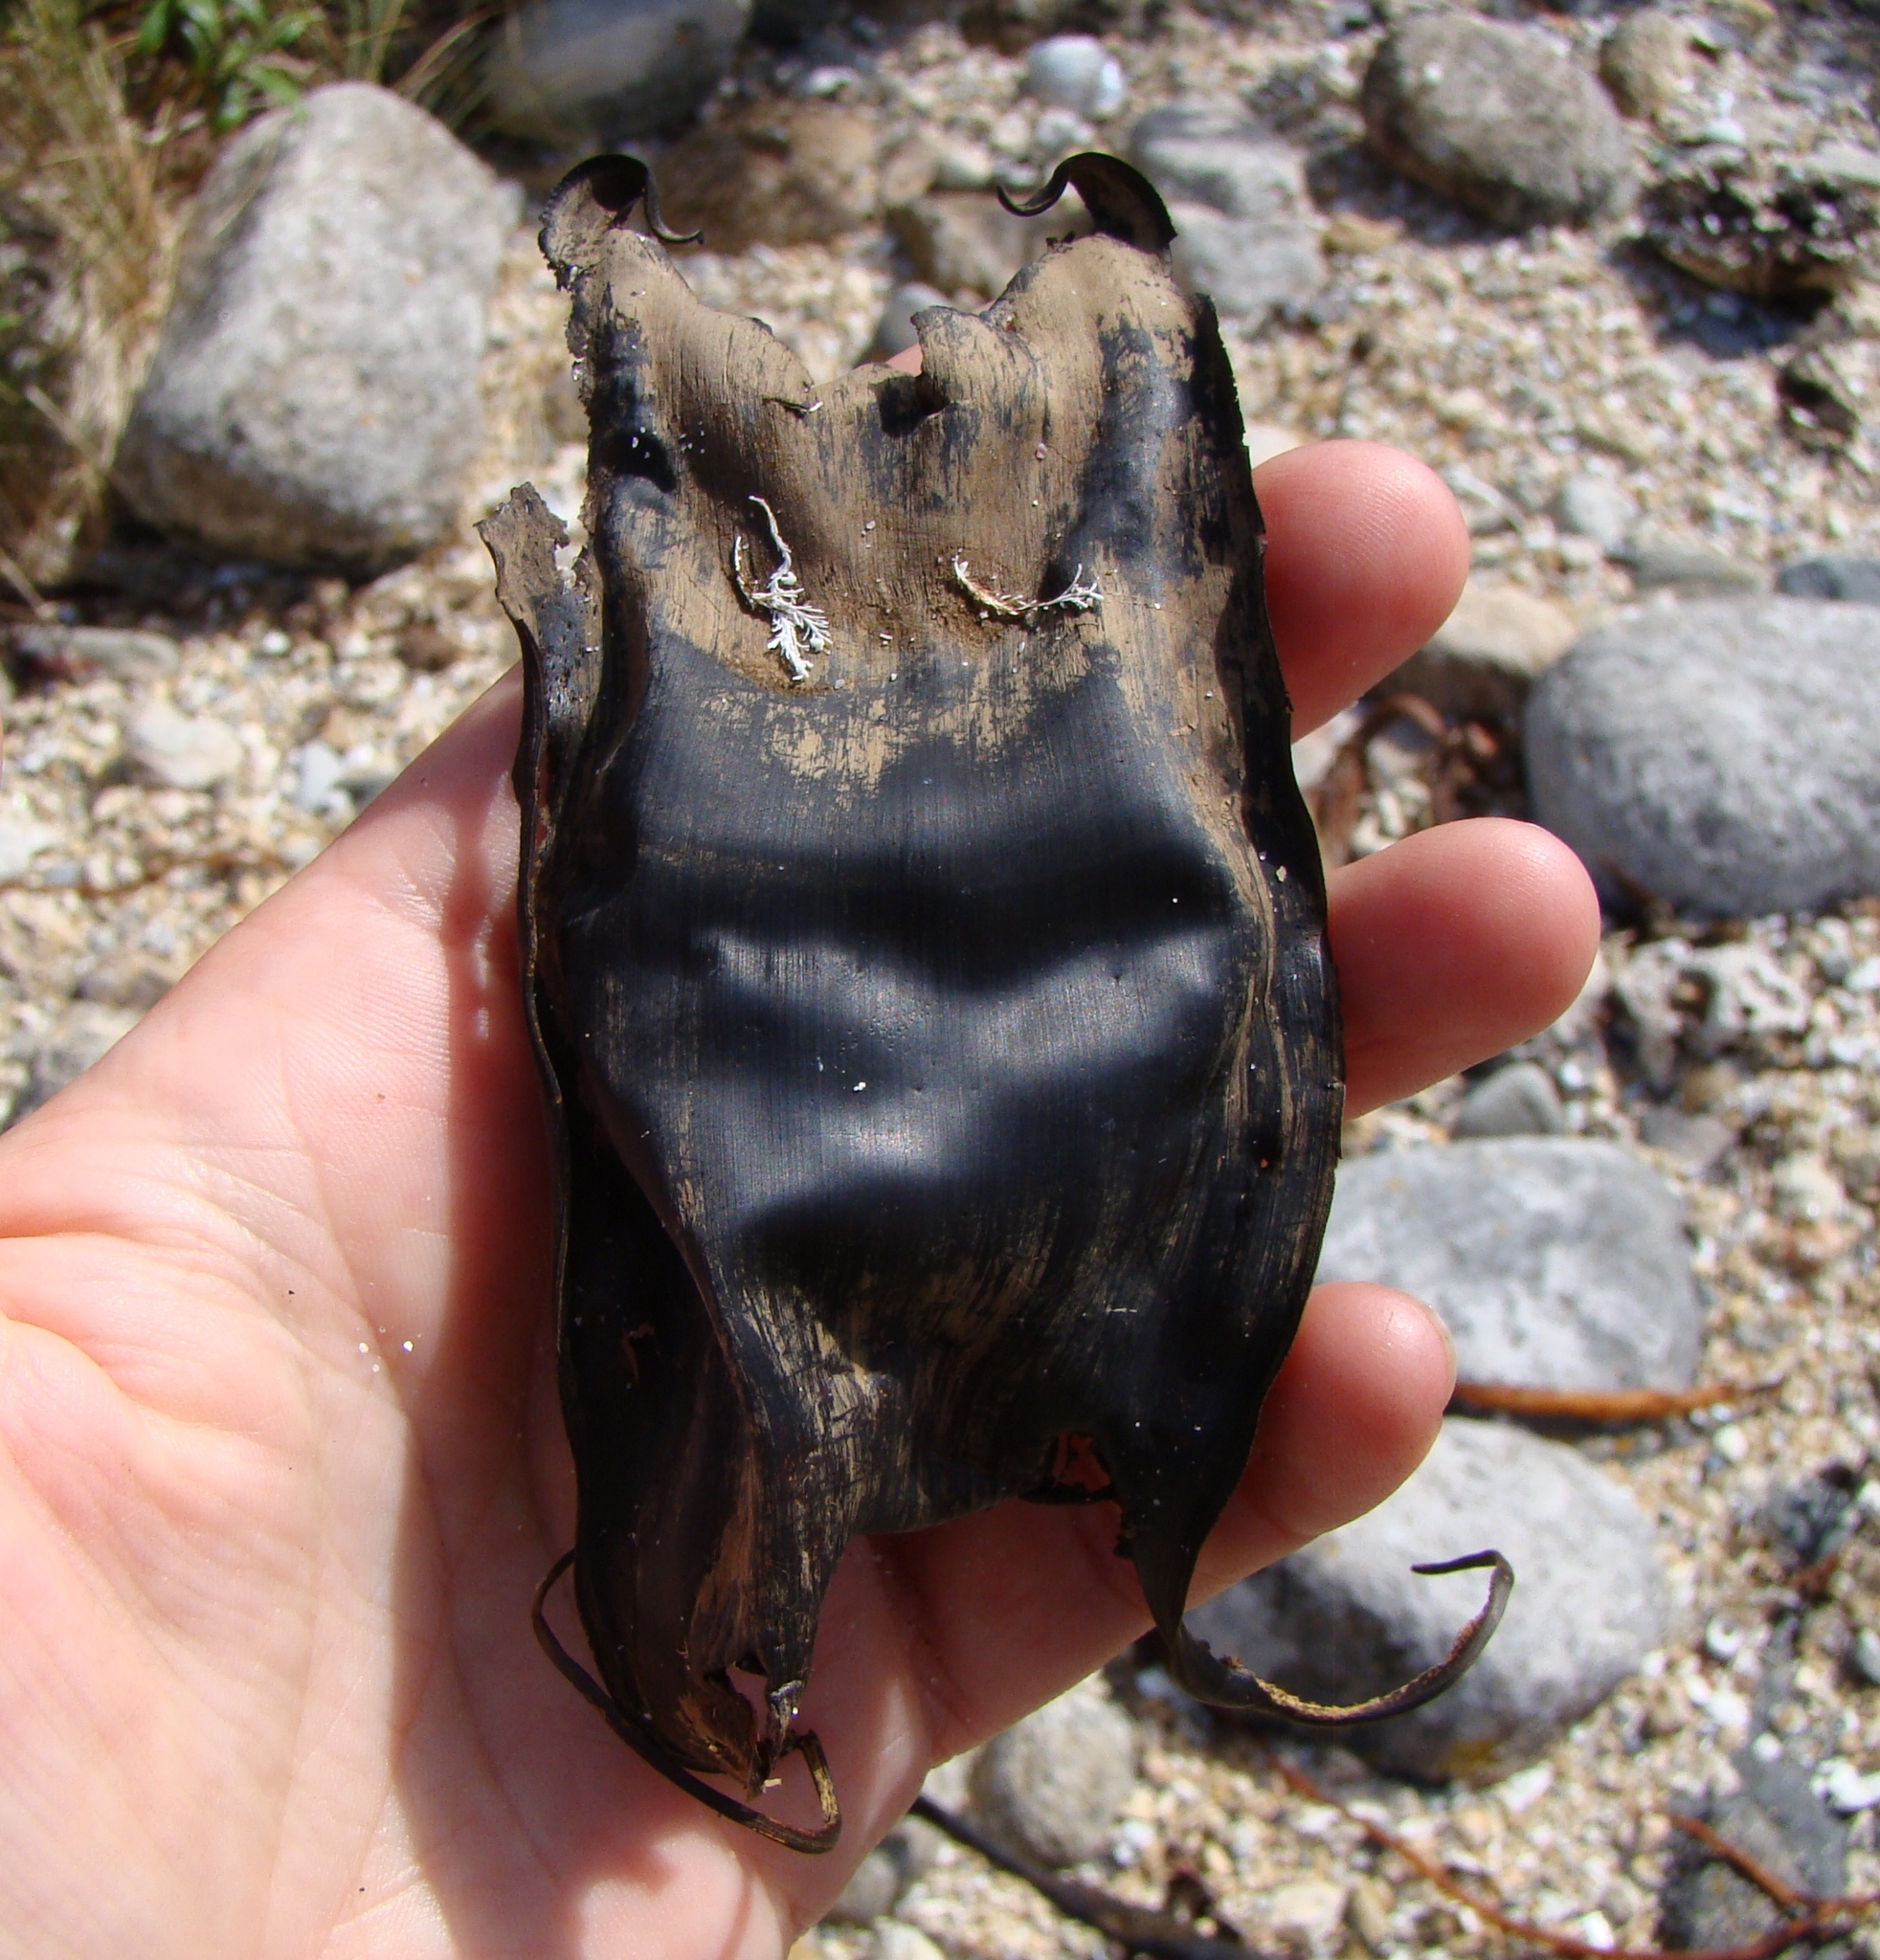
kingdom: Animalia
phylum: Chordata
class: Elasmobranchii
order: Rajiformes
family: Rajidae
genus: Zearaja
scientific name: Zearaja nasuta
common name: New zealand rough skate
